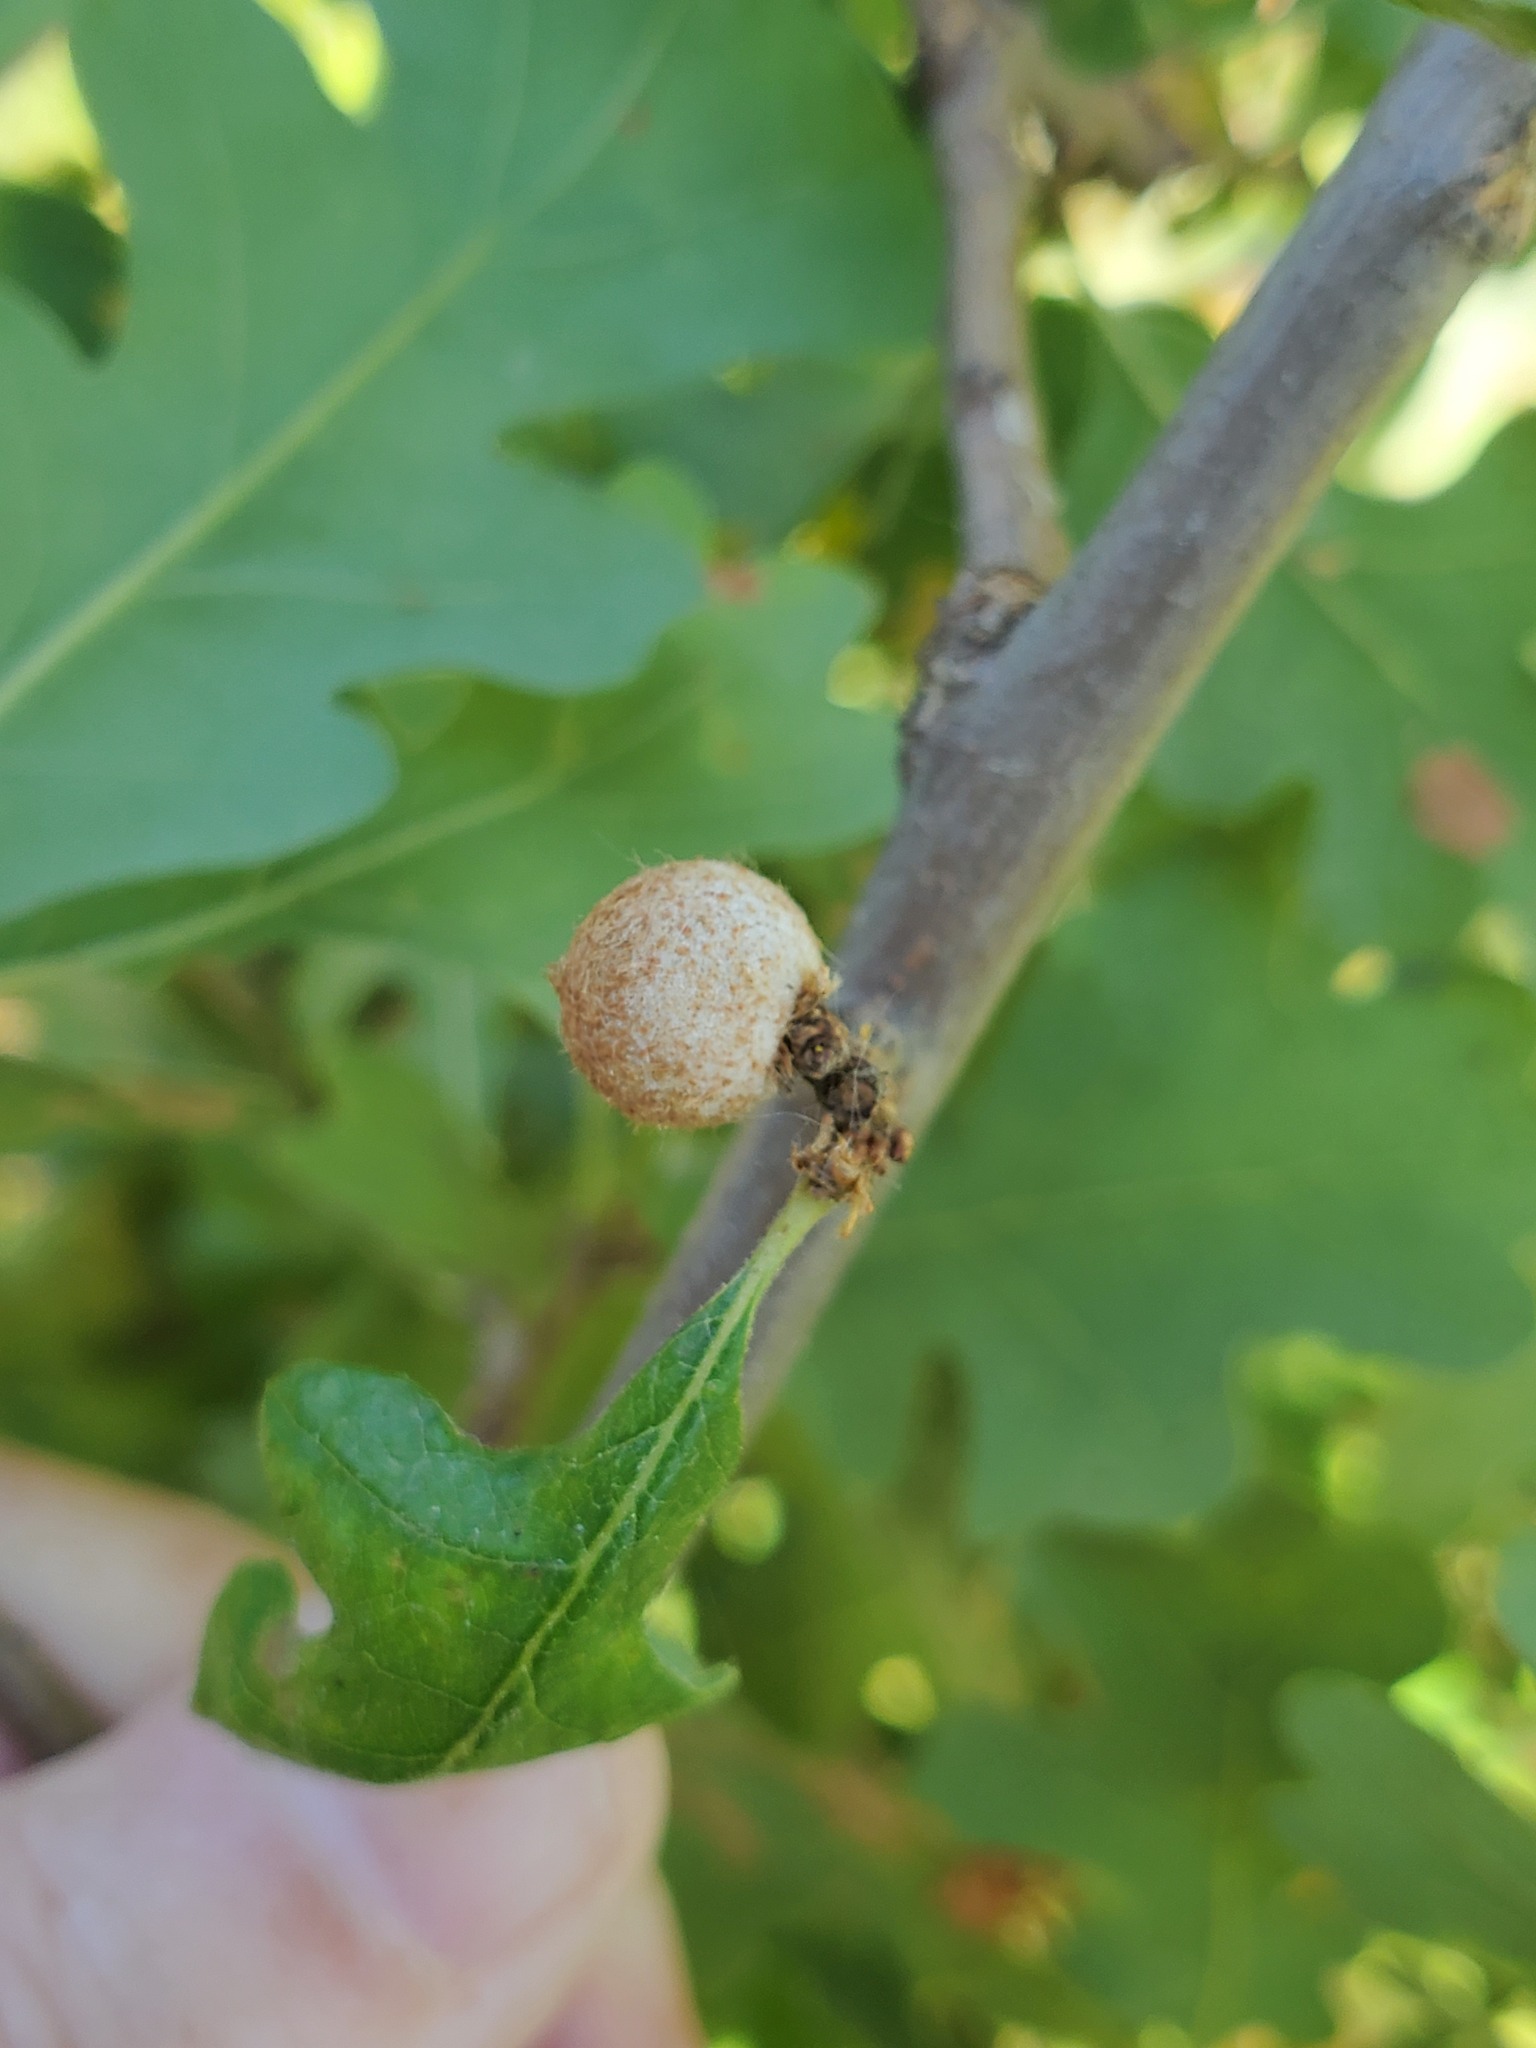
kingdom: Animalia
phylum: Arthropoda
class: Insecta
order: Hymenoptera
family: Cynipidae
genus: Burnettweldia
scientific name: Burnettweldia
